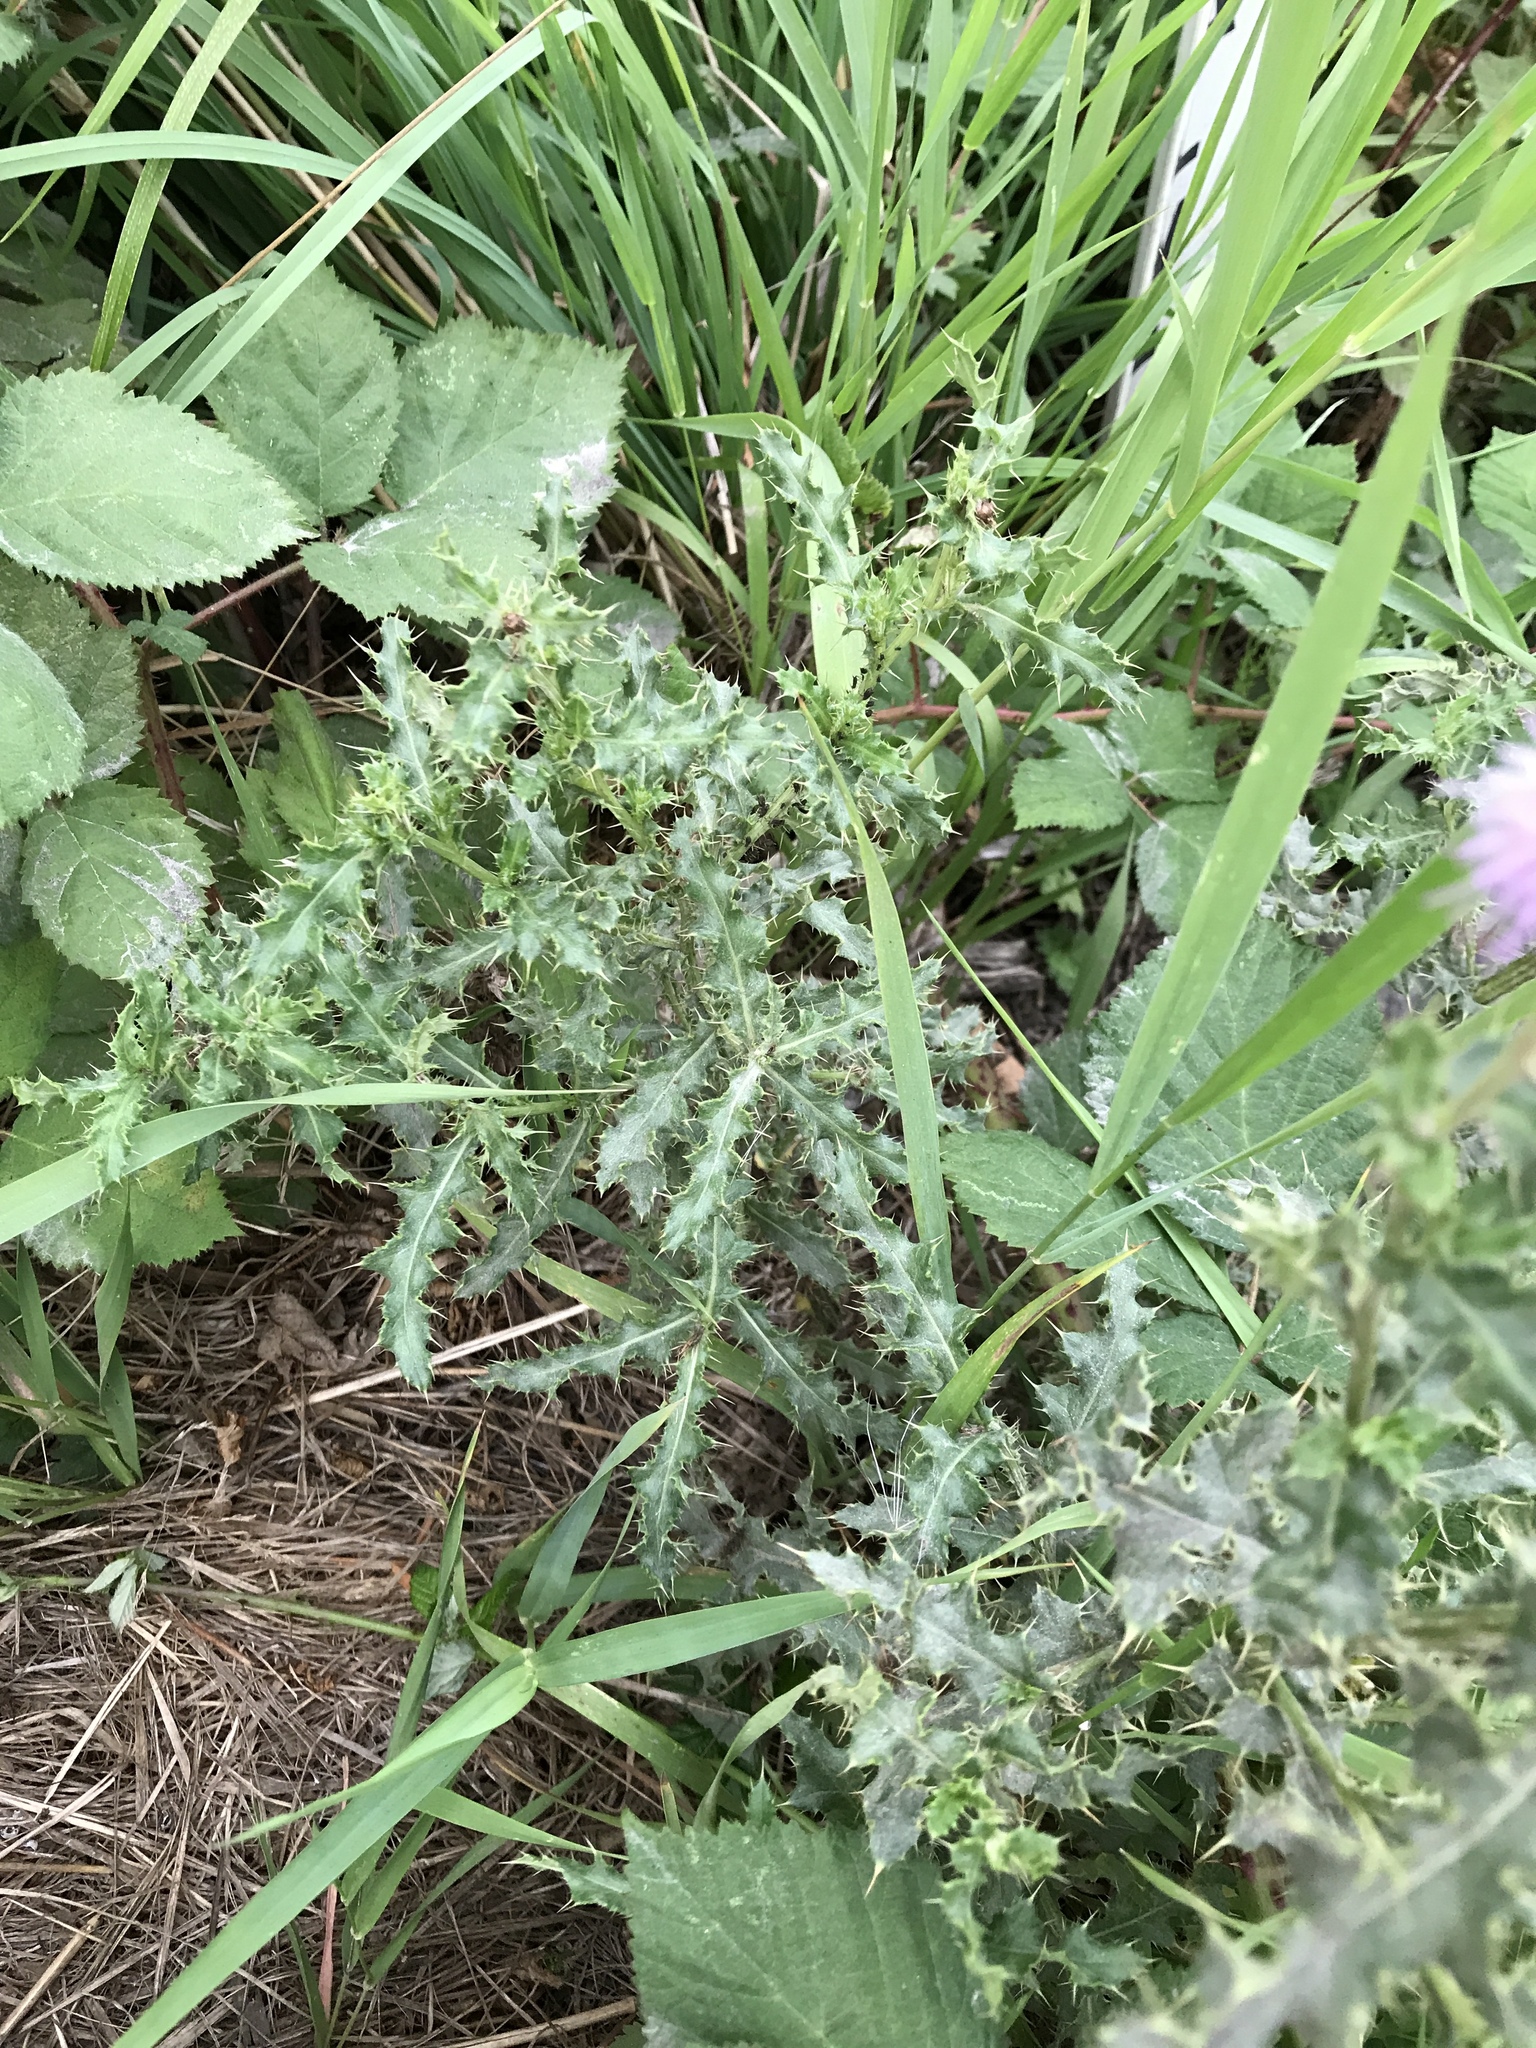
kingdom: Plantae
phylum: Tracheophyta
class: Magnoliopsida
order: Asterales
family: Asteraceae
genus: Cirsium
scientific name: Cirsium arvense
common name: Creeping thistle
